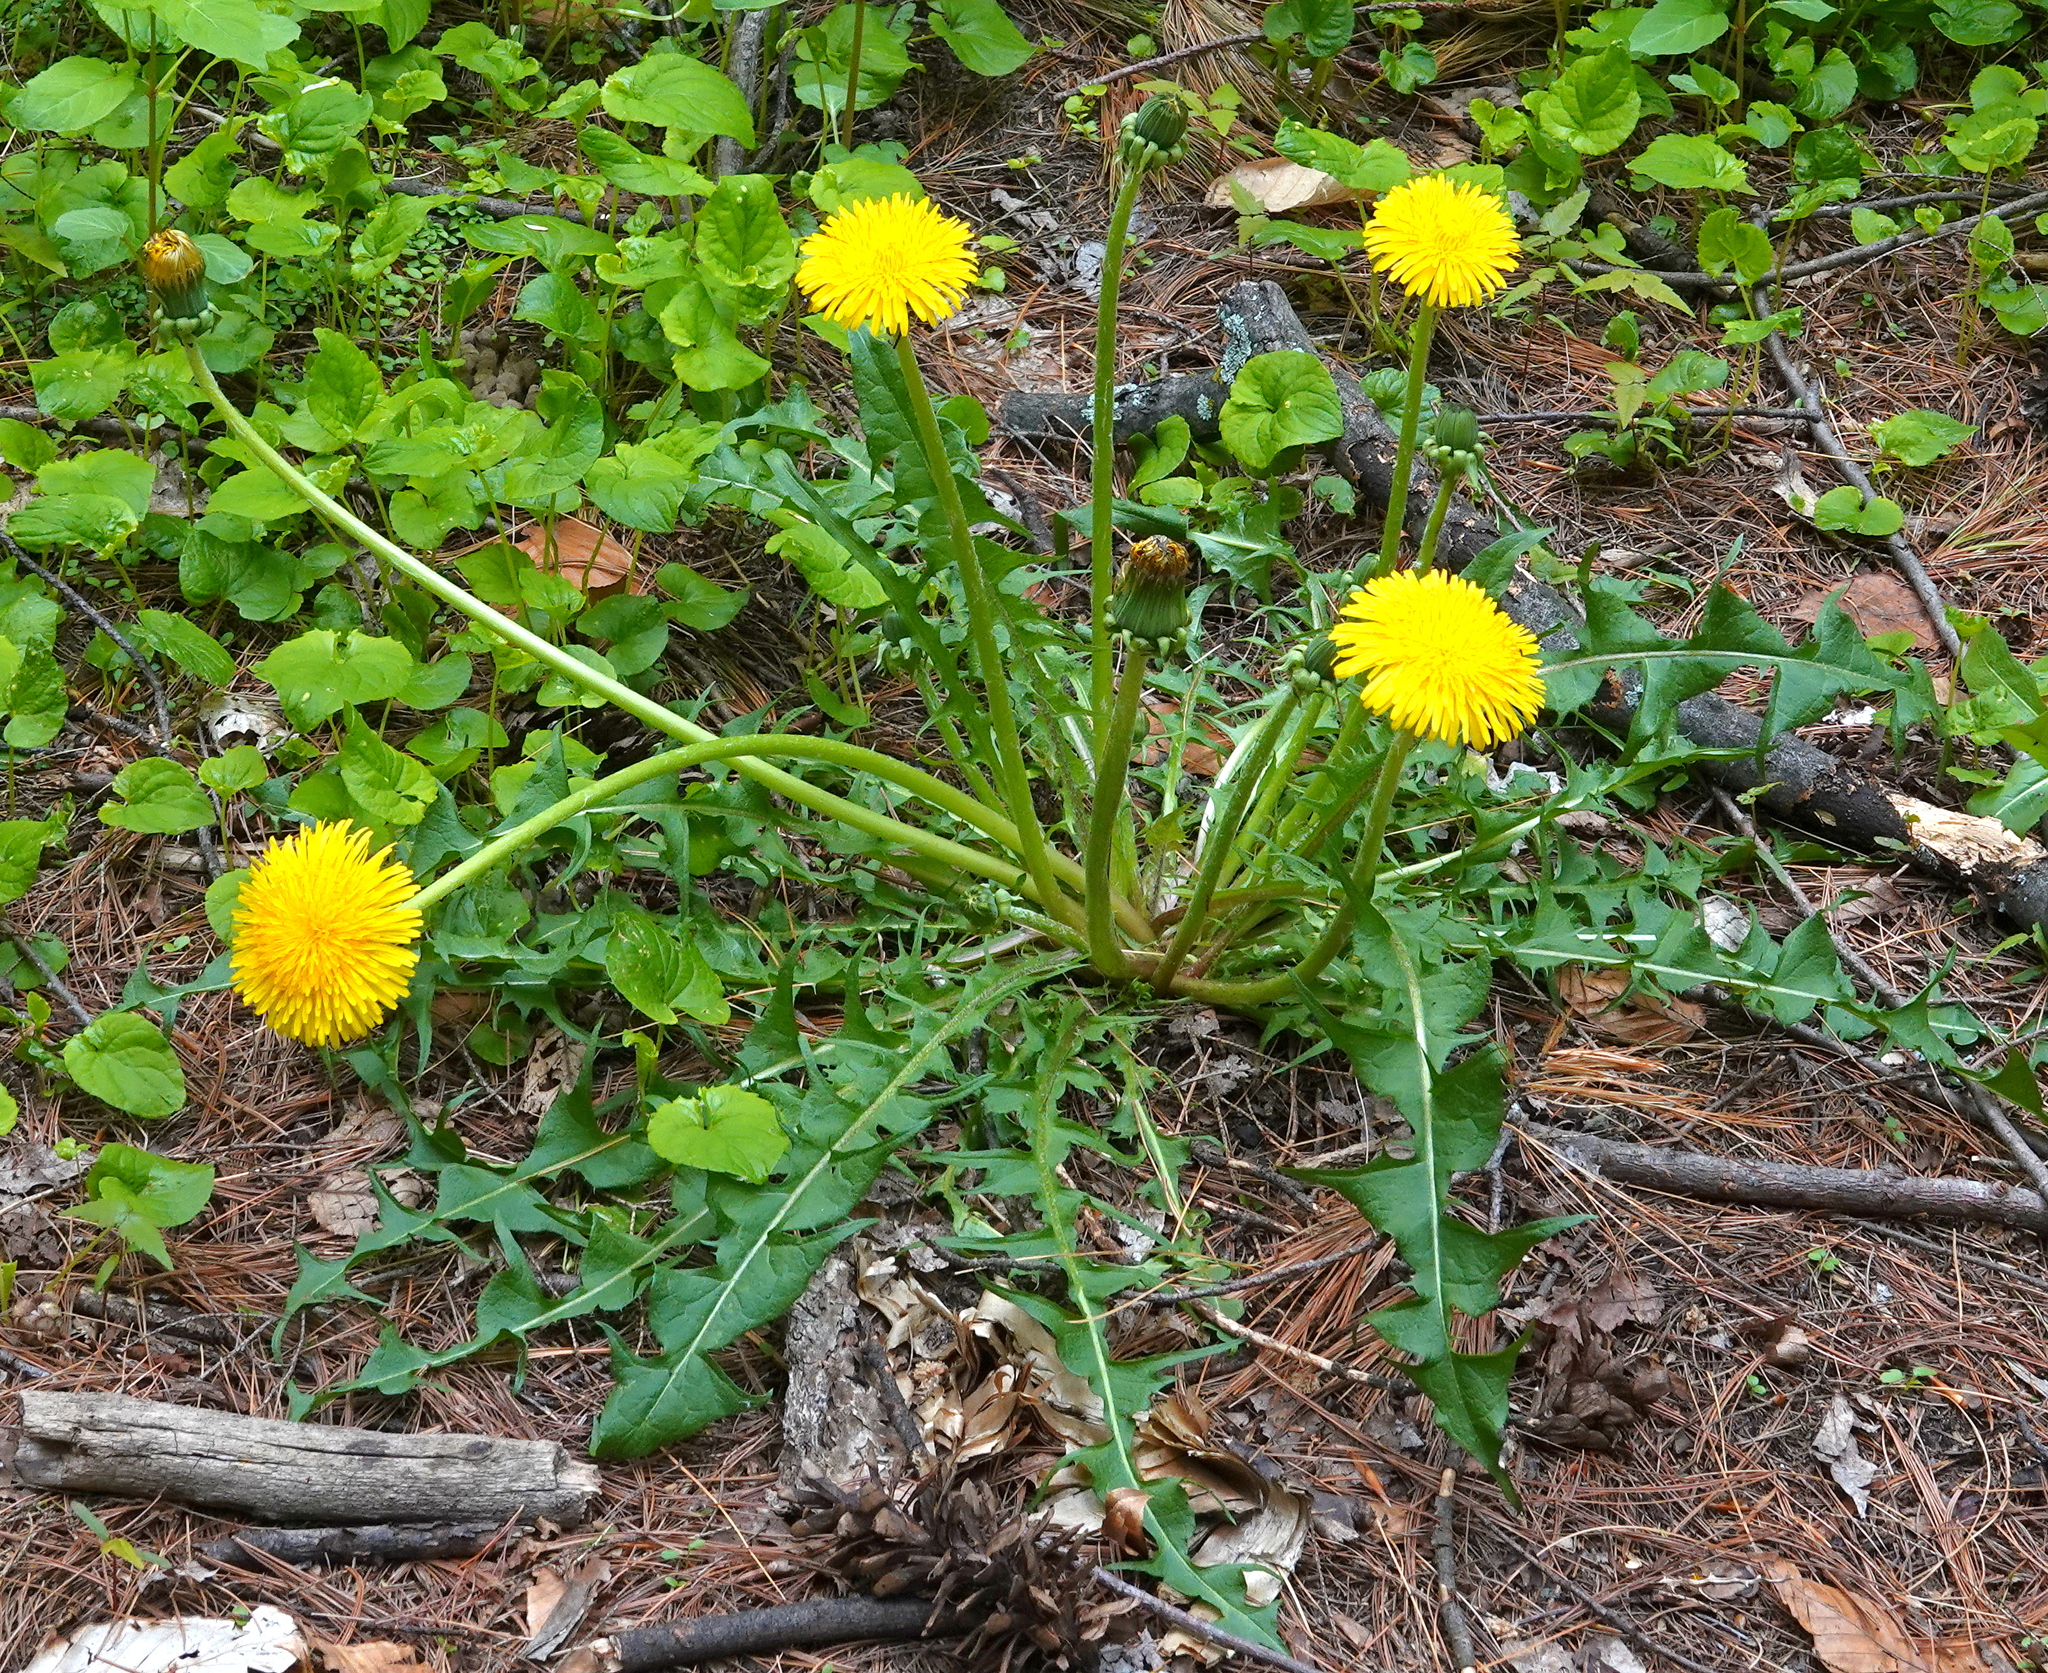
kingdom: Plantae
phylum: Tracheophyta
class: Magnoliopsida
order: Asterales
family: Asteraceae
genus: Taraxacum
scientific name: Taraxacum officinale
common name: Common dandelion
